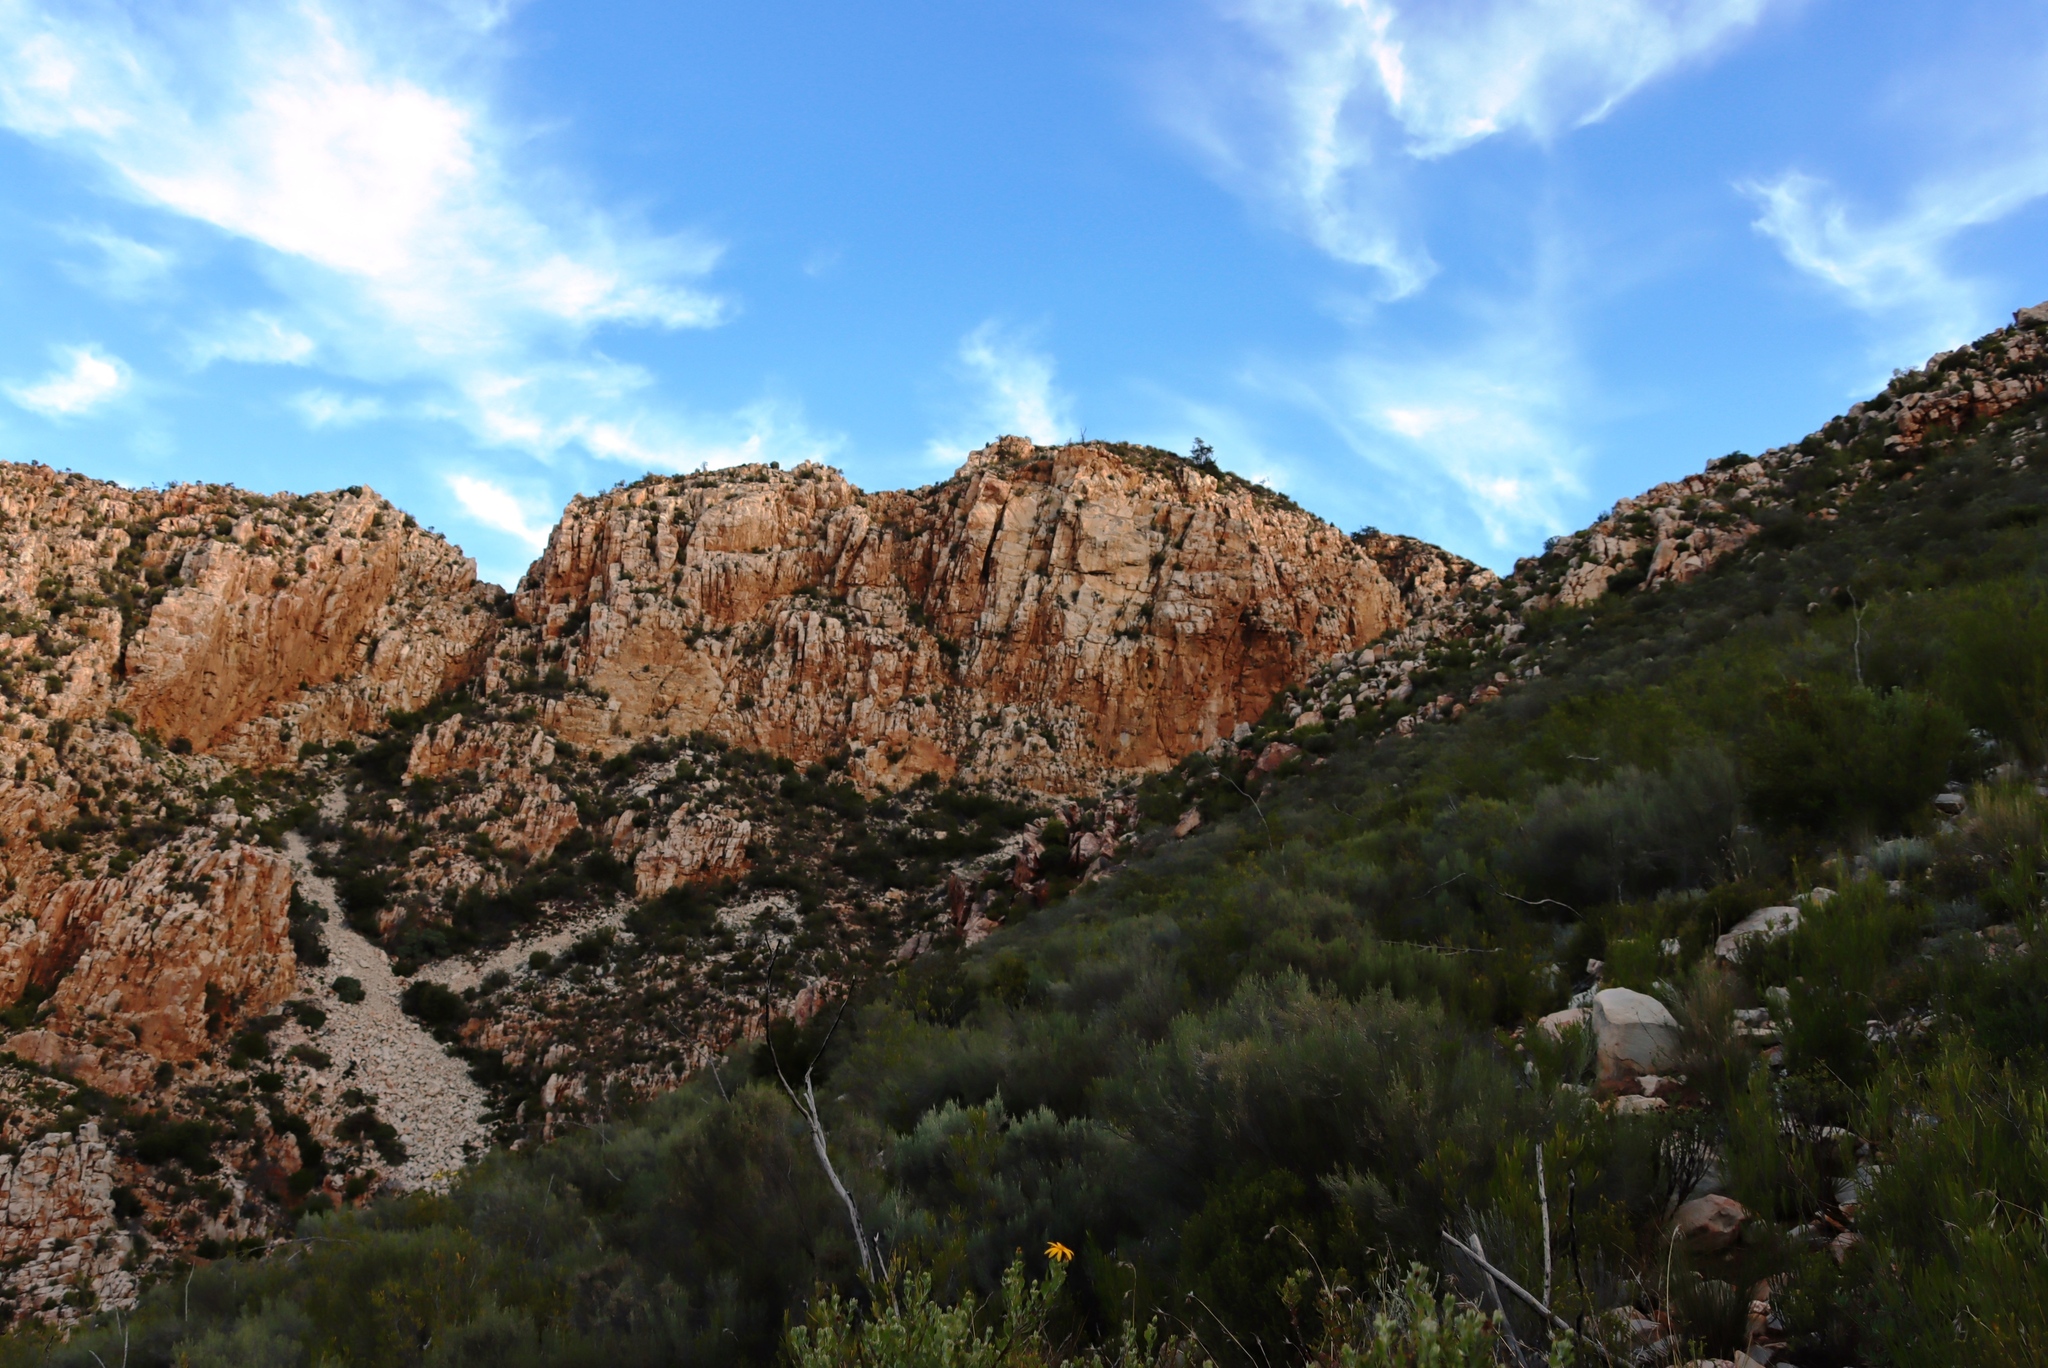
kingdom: Plantae
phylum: Tracheophyta
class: Pinopsida
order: Pinales
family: Cupressaceae
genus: Widdringtonia
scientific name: Widdringtonia schwarzii
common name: Baviaans cedar
